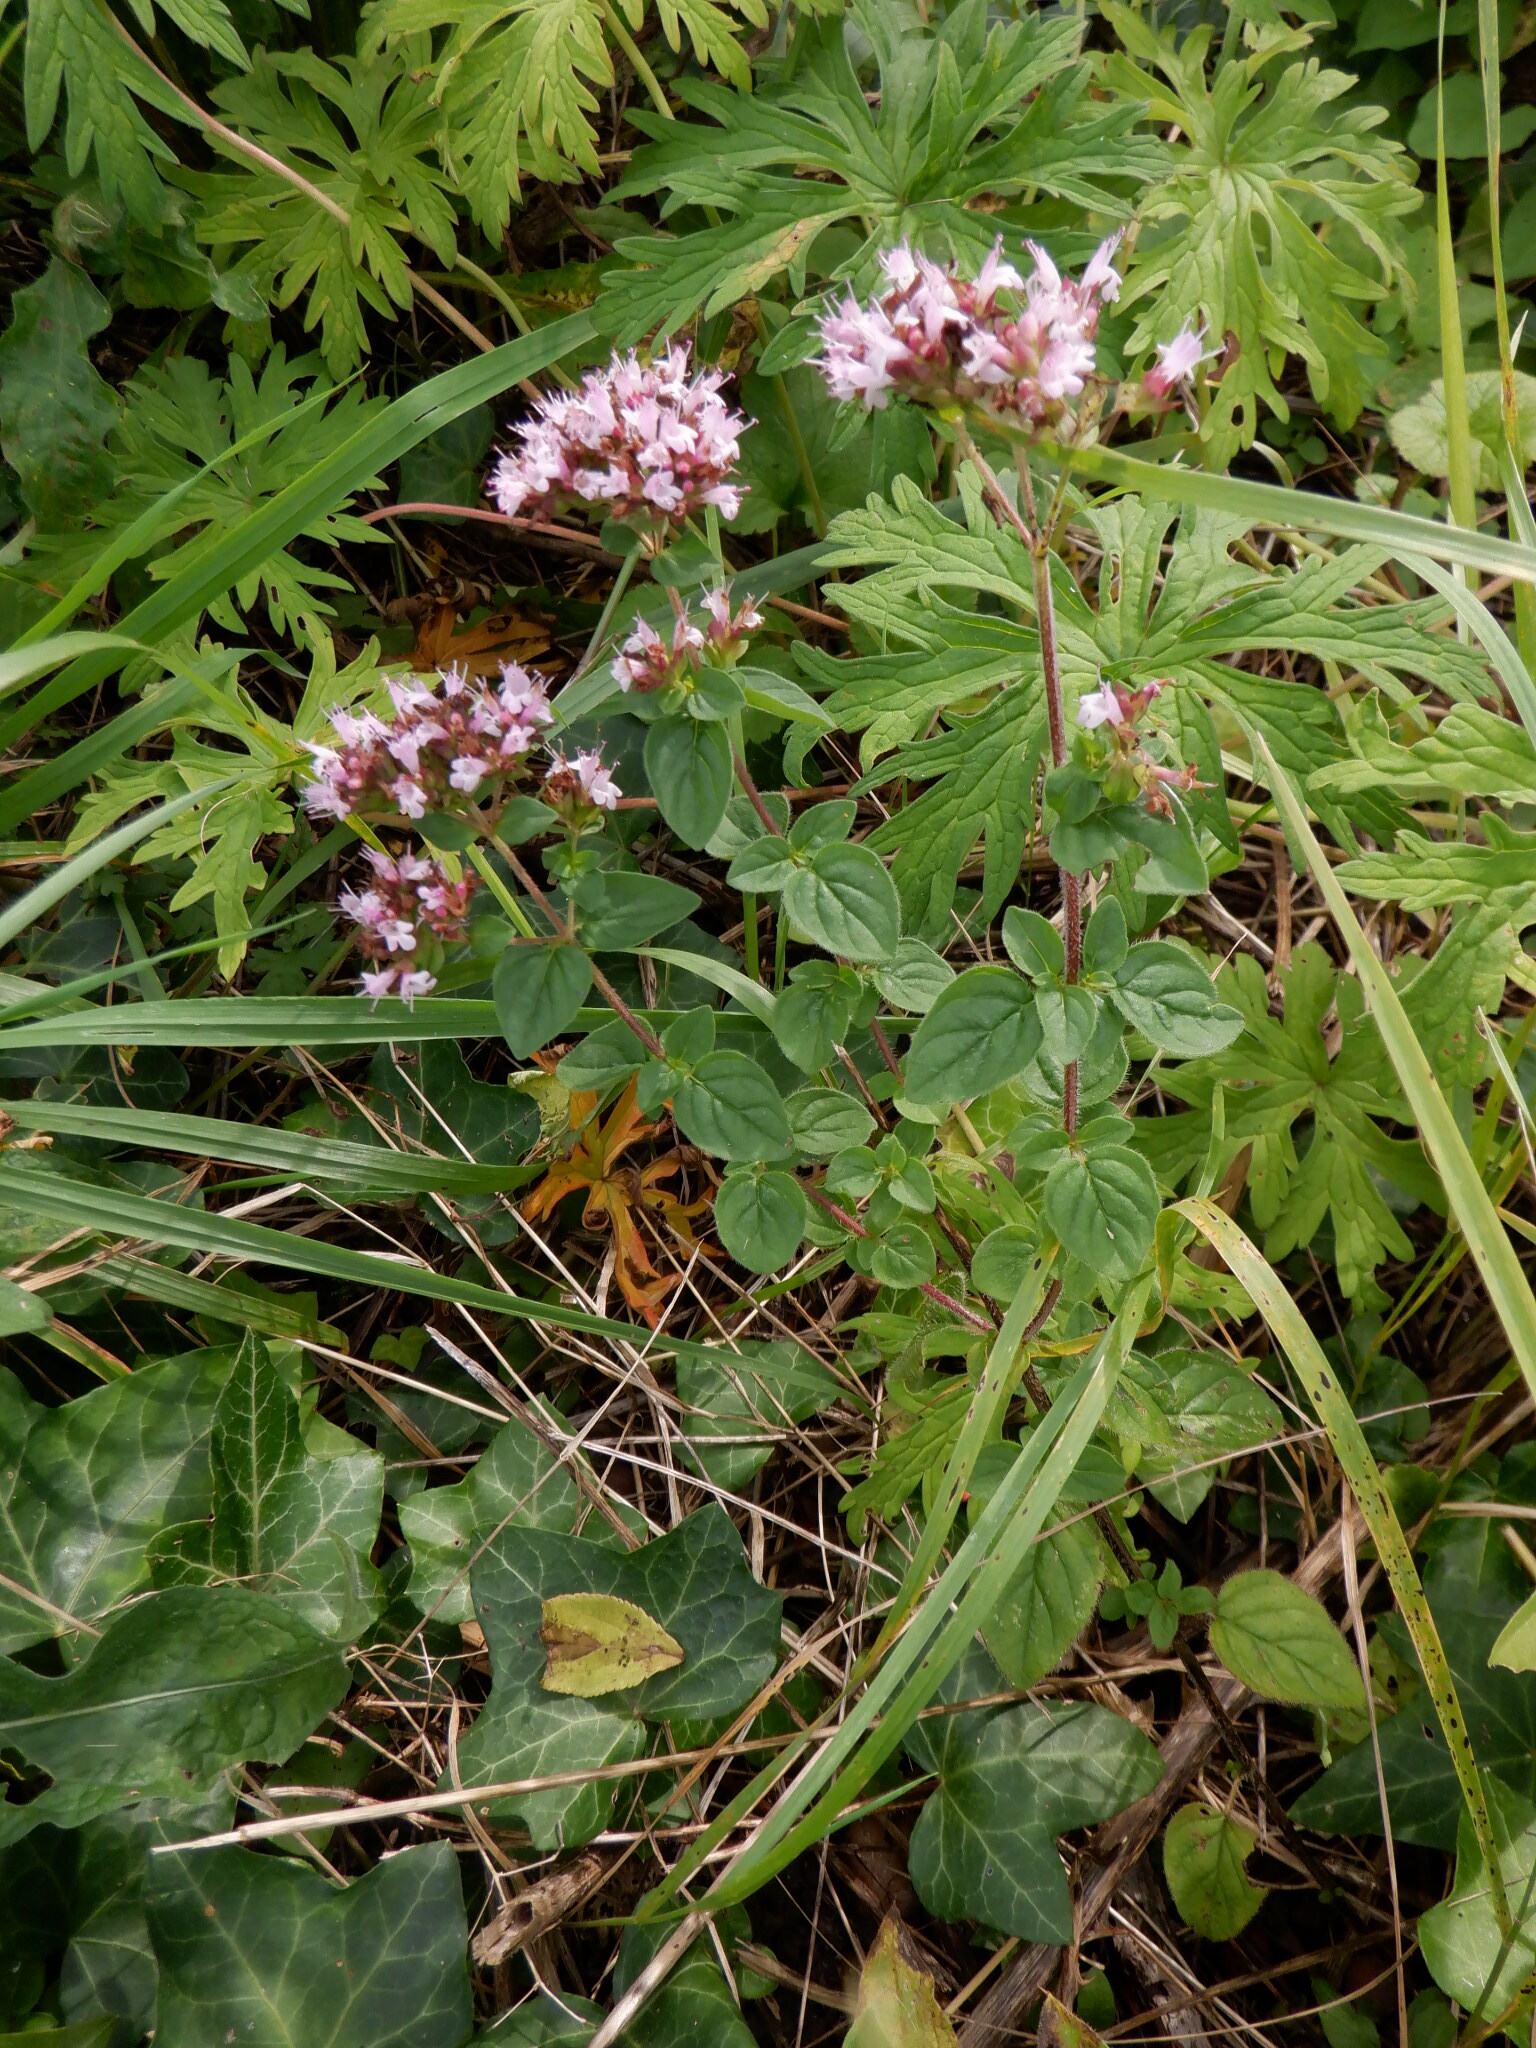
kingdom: Plantae
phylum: Tracheophyta
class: Magnoliopsida
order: Lamiales
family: Lamiaceae
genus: Origanum
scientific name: Origanum vulgare
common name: Wild marjoram
